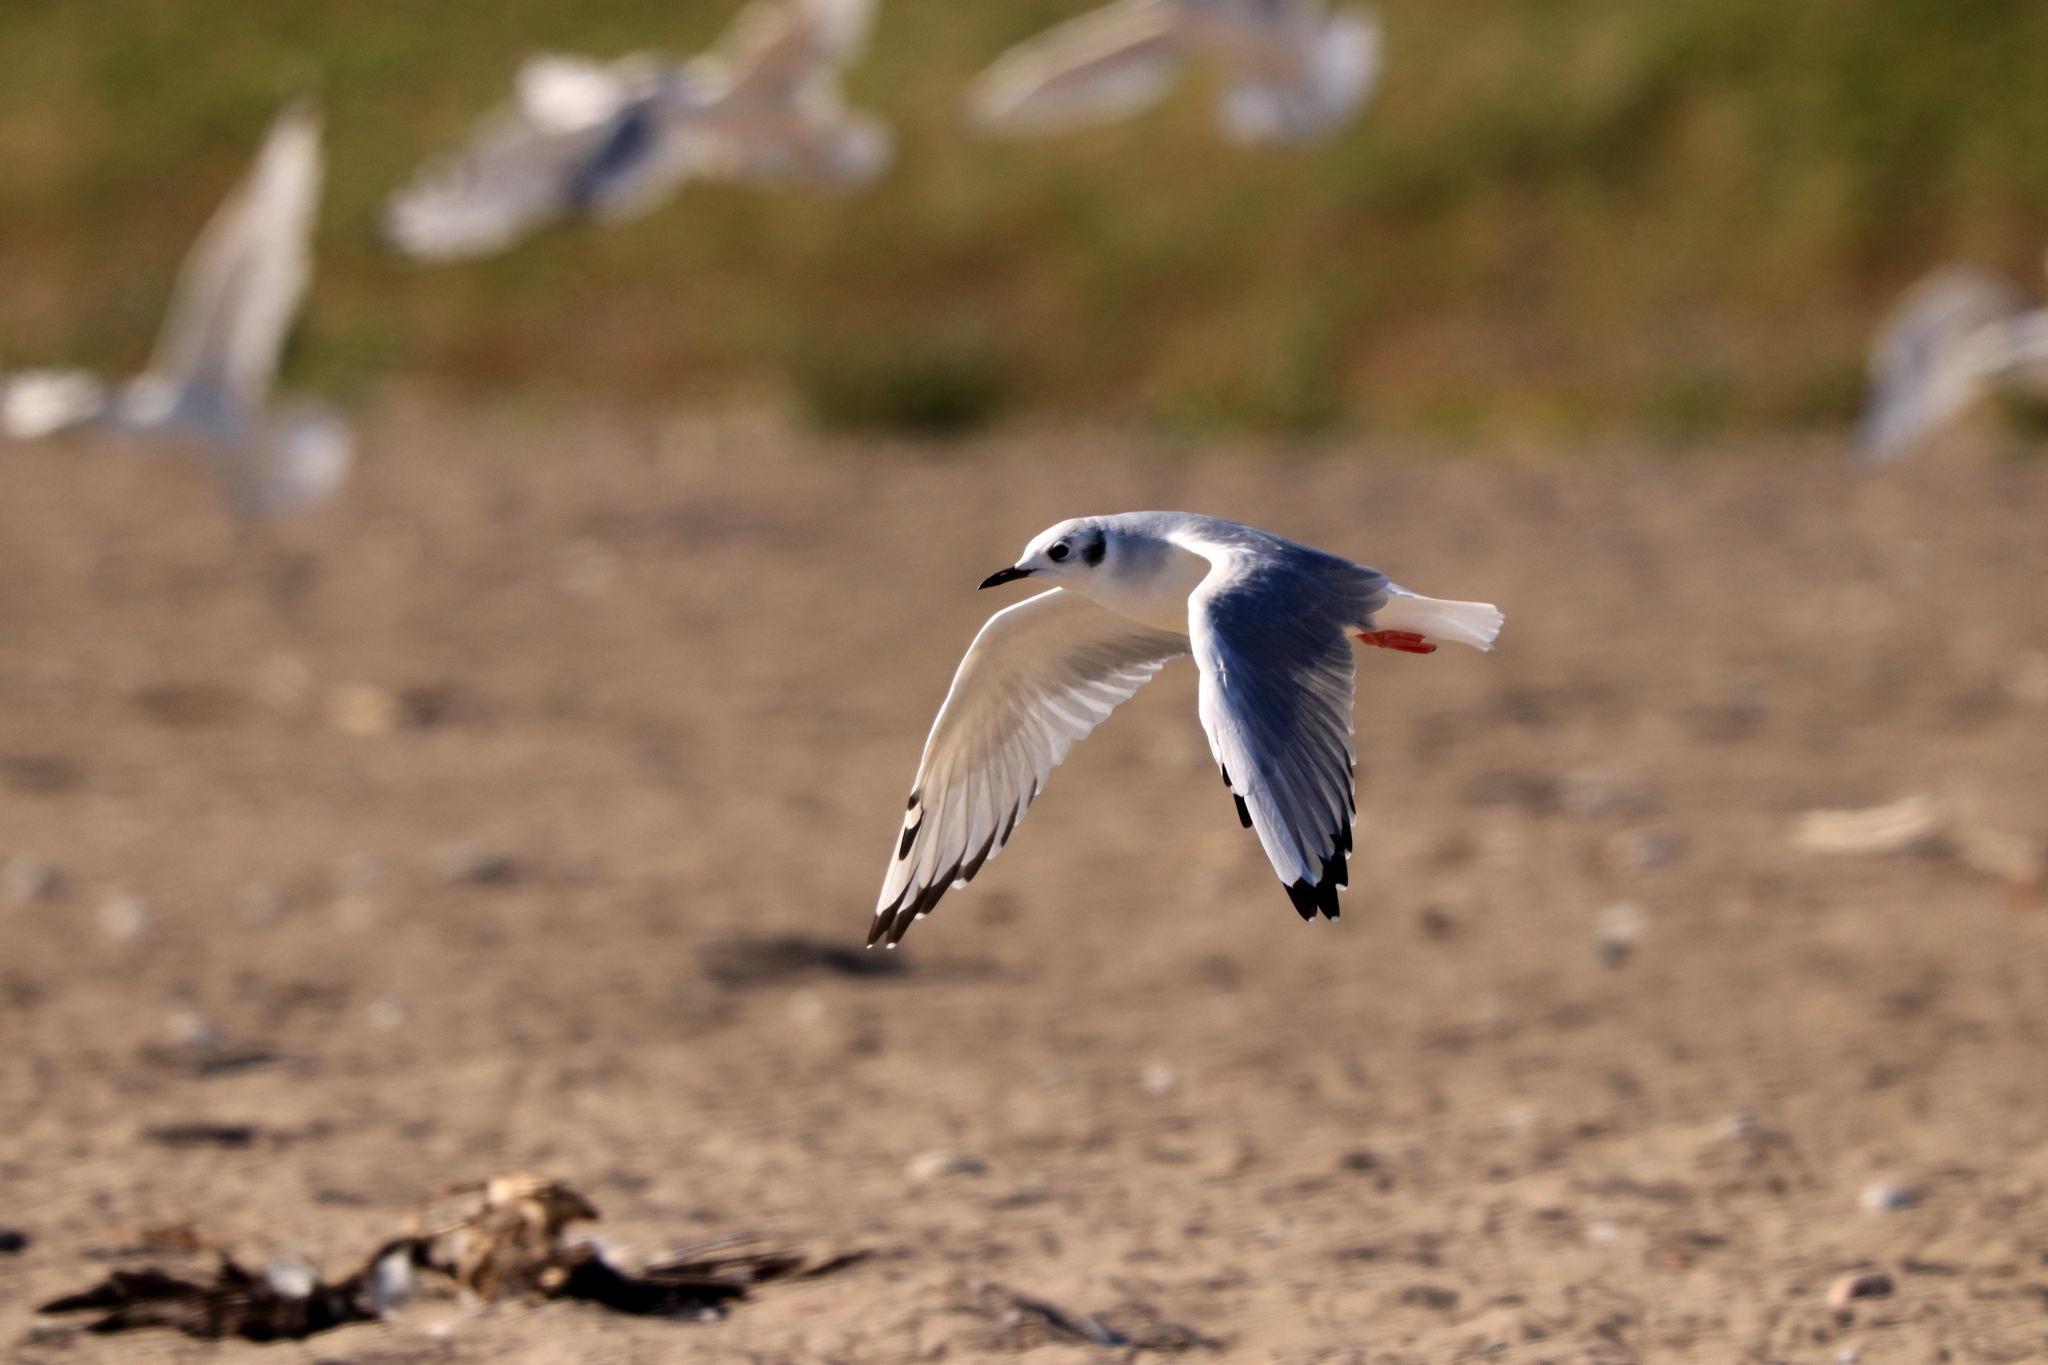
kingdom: Animalia
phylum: Chordata
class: Aves
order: Charadriiformes
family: Laridae
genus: Chroicocephalus
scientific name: Chroicocephalus philadelphia
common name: Bonaparte's gull
